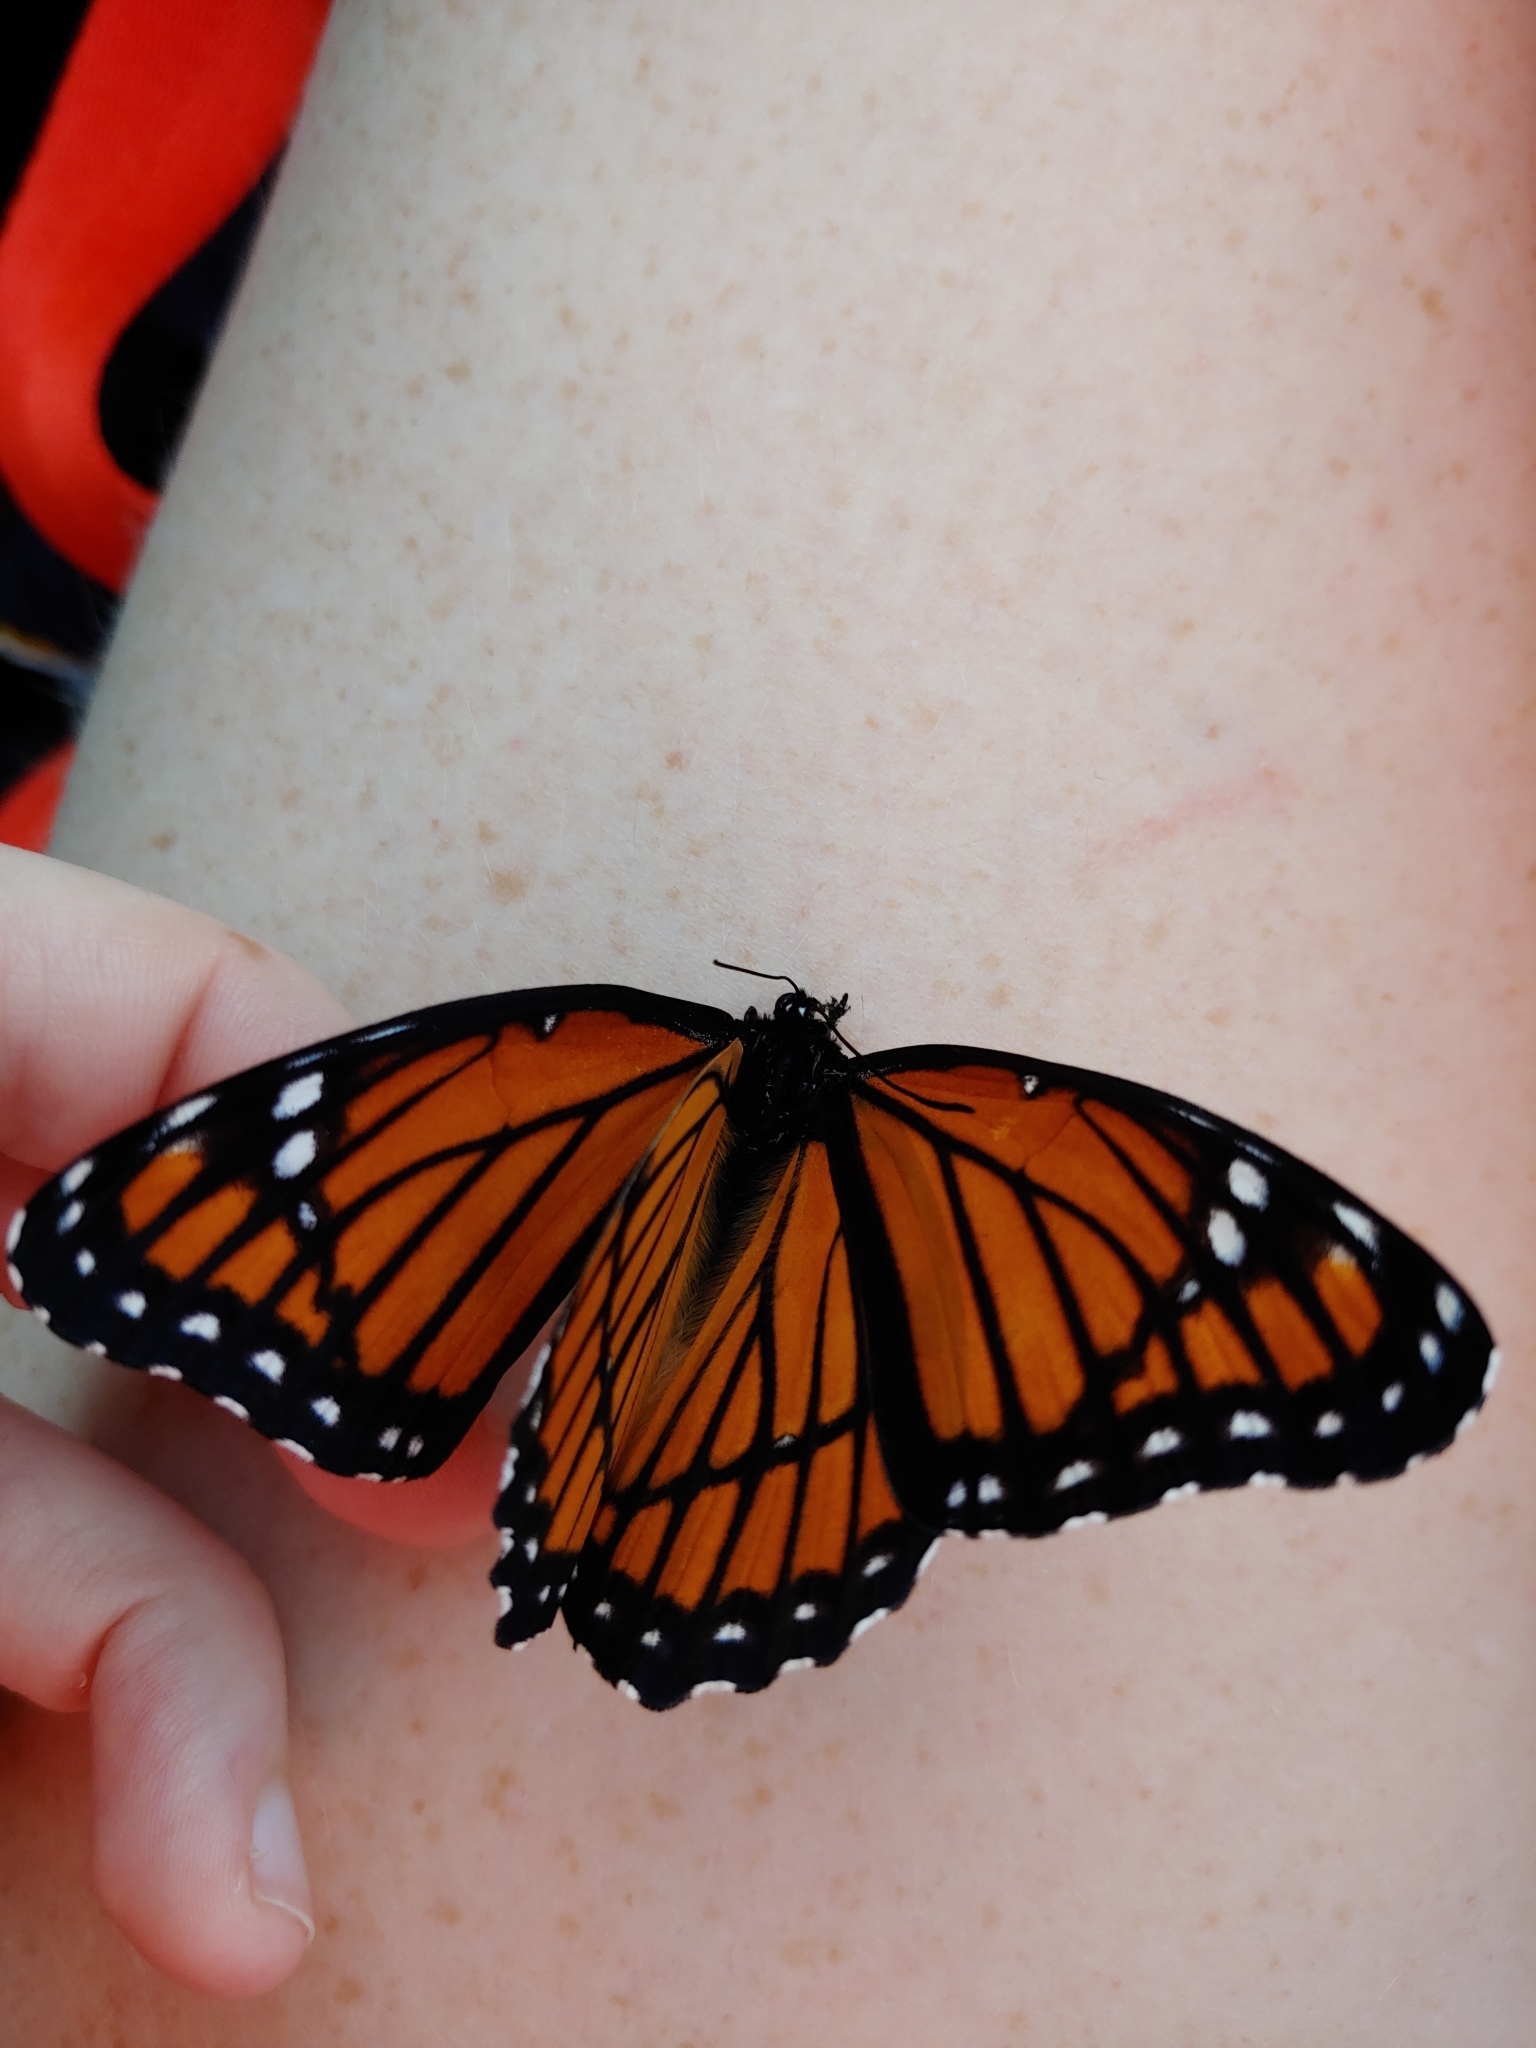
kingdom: Animalia
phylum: Arthropoda
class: Insecta
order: Lepidoptera
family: Nymphalidae
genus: Limenitis
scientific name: Limenitis archippus
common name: Viceroy
